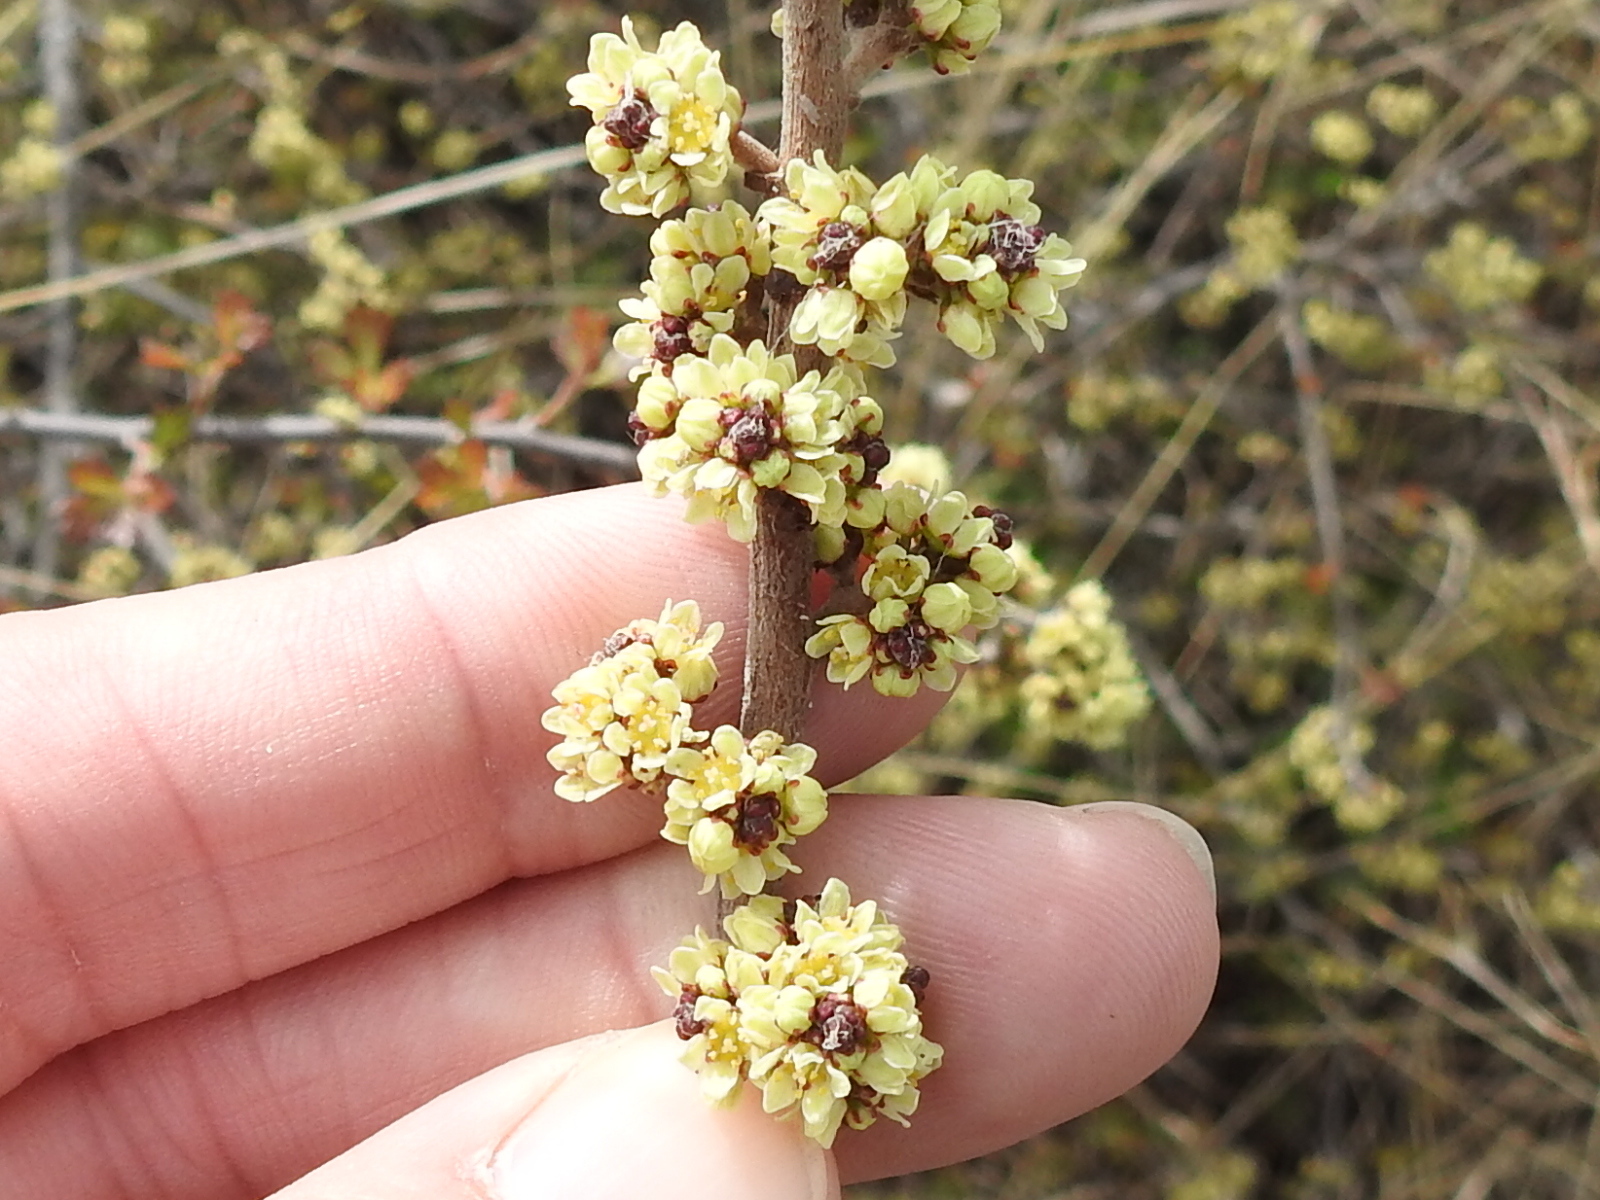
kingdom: Plantae
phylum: Tracheophyta
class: Magnoliopsida
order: Sapindales
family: Anacardiaceae
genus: Rhus
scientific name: Rhus aromatica
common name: Aromatic sumac
